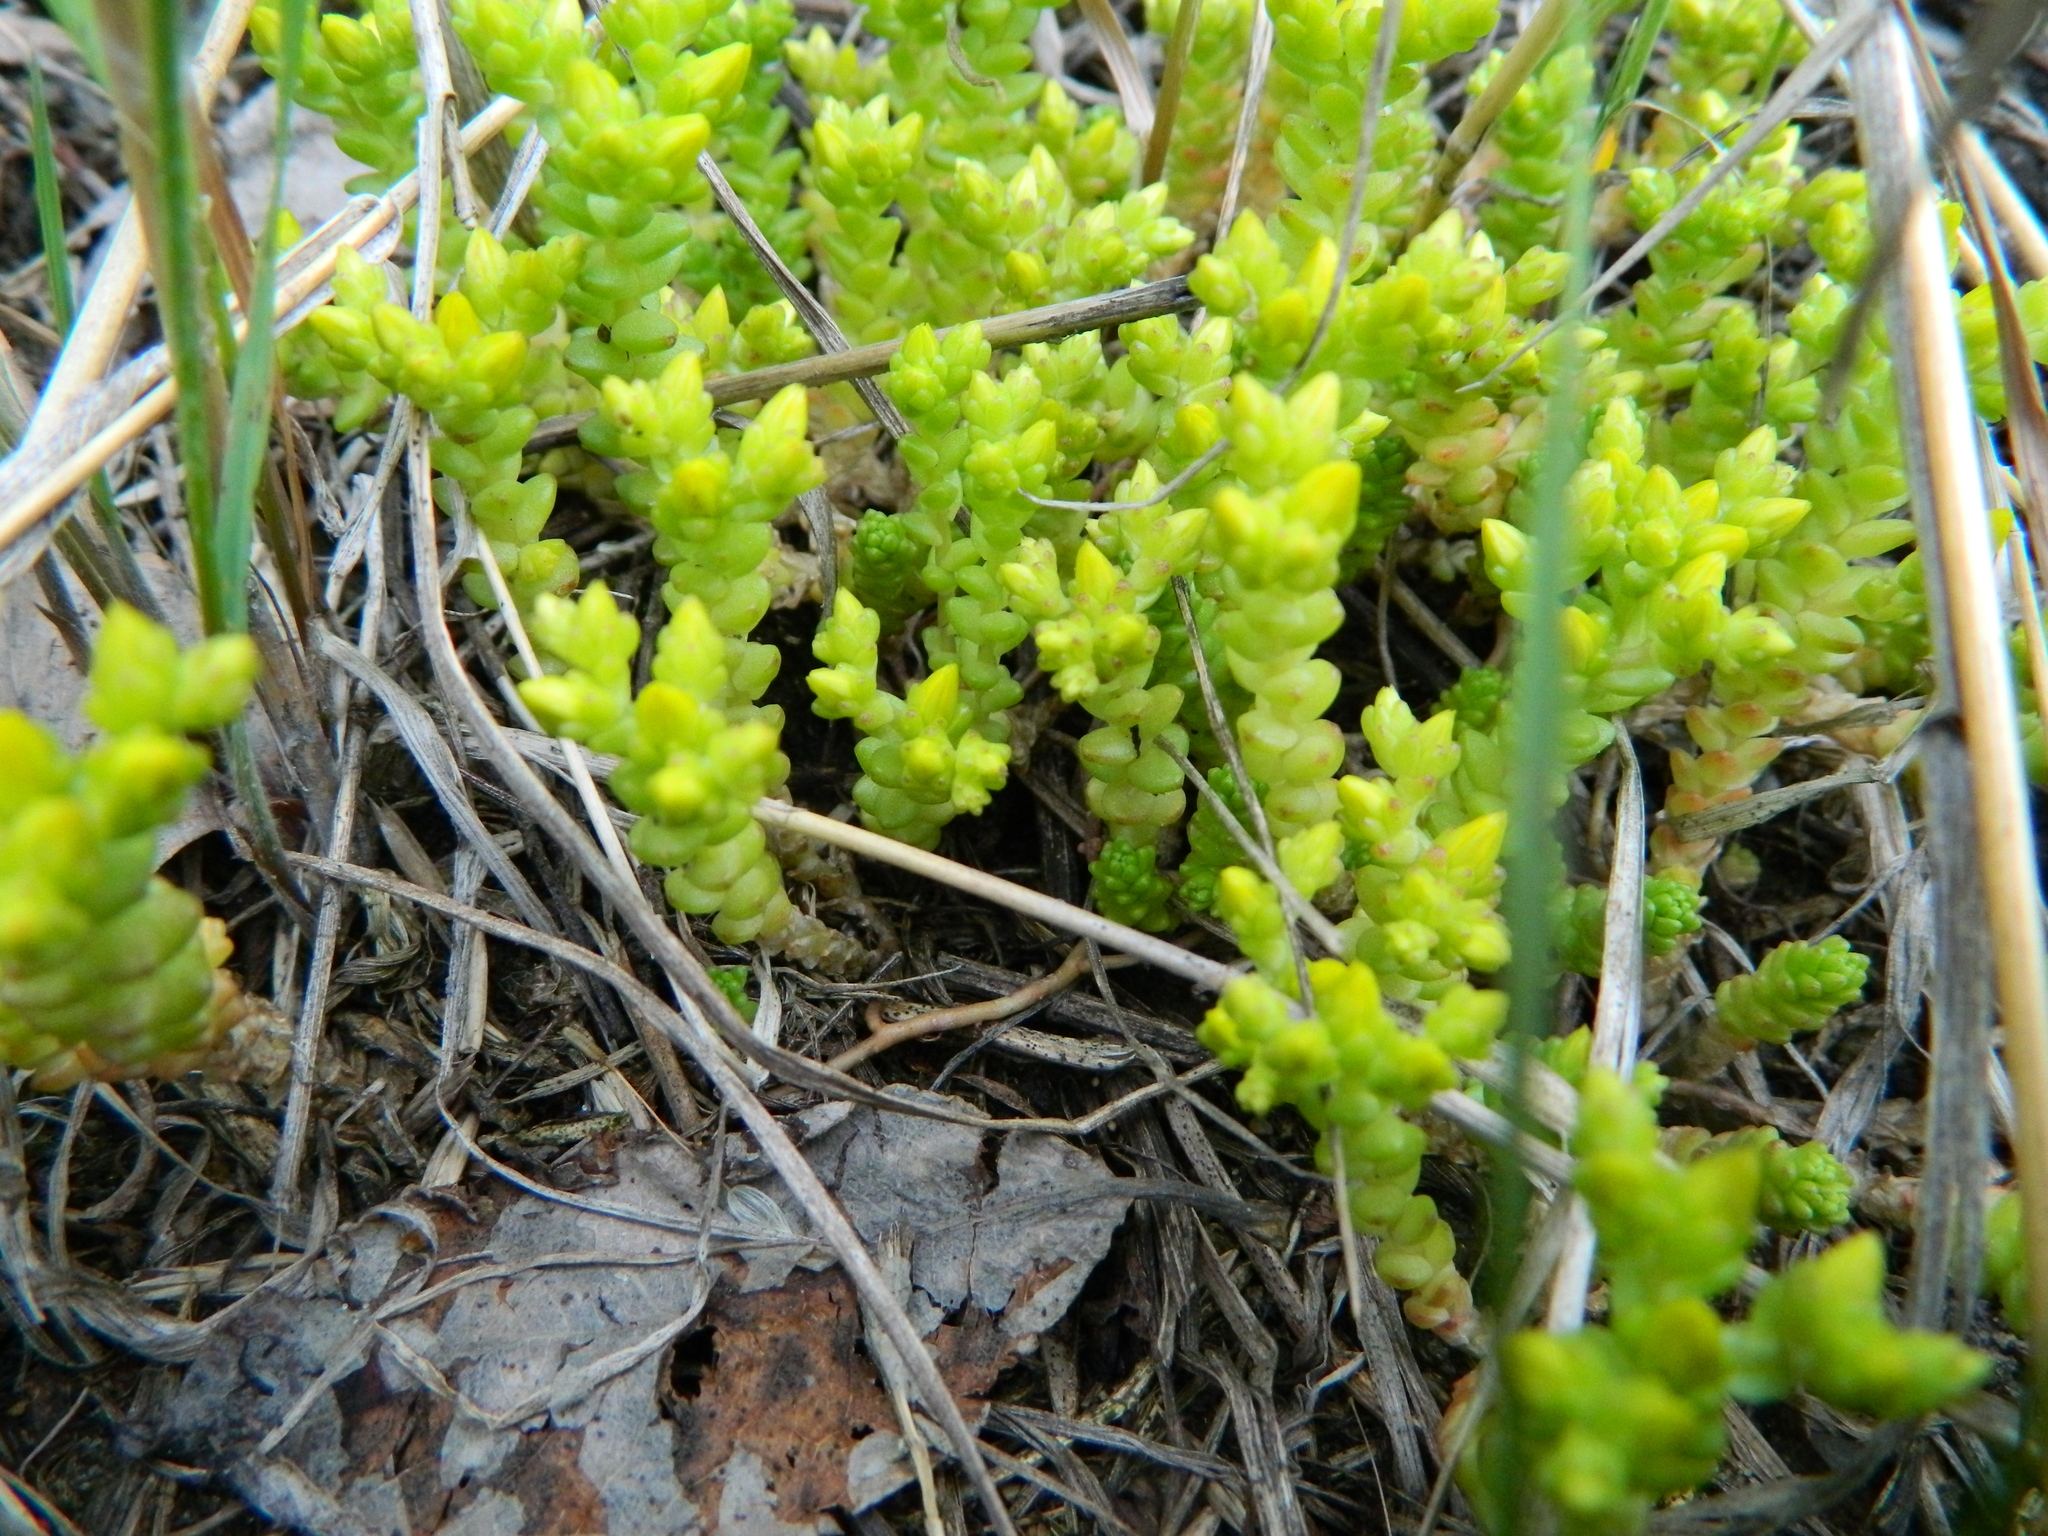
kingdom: Plantae
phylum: Tracheophyta
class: Magnoliopsida
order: Saxifragales
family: Crassulaceae
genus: Sedum
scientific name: Sedum acre
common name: Biting stonecrop
